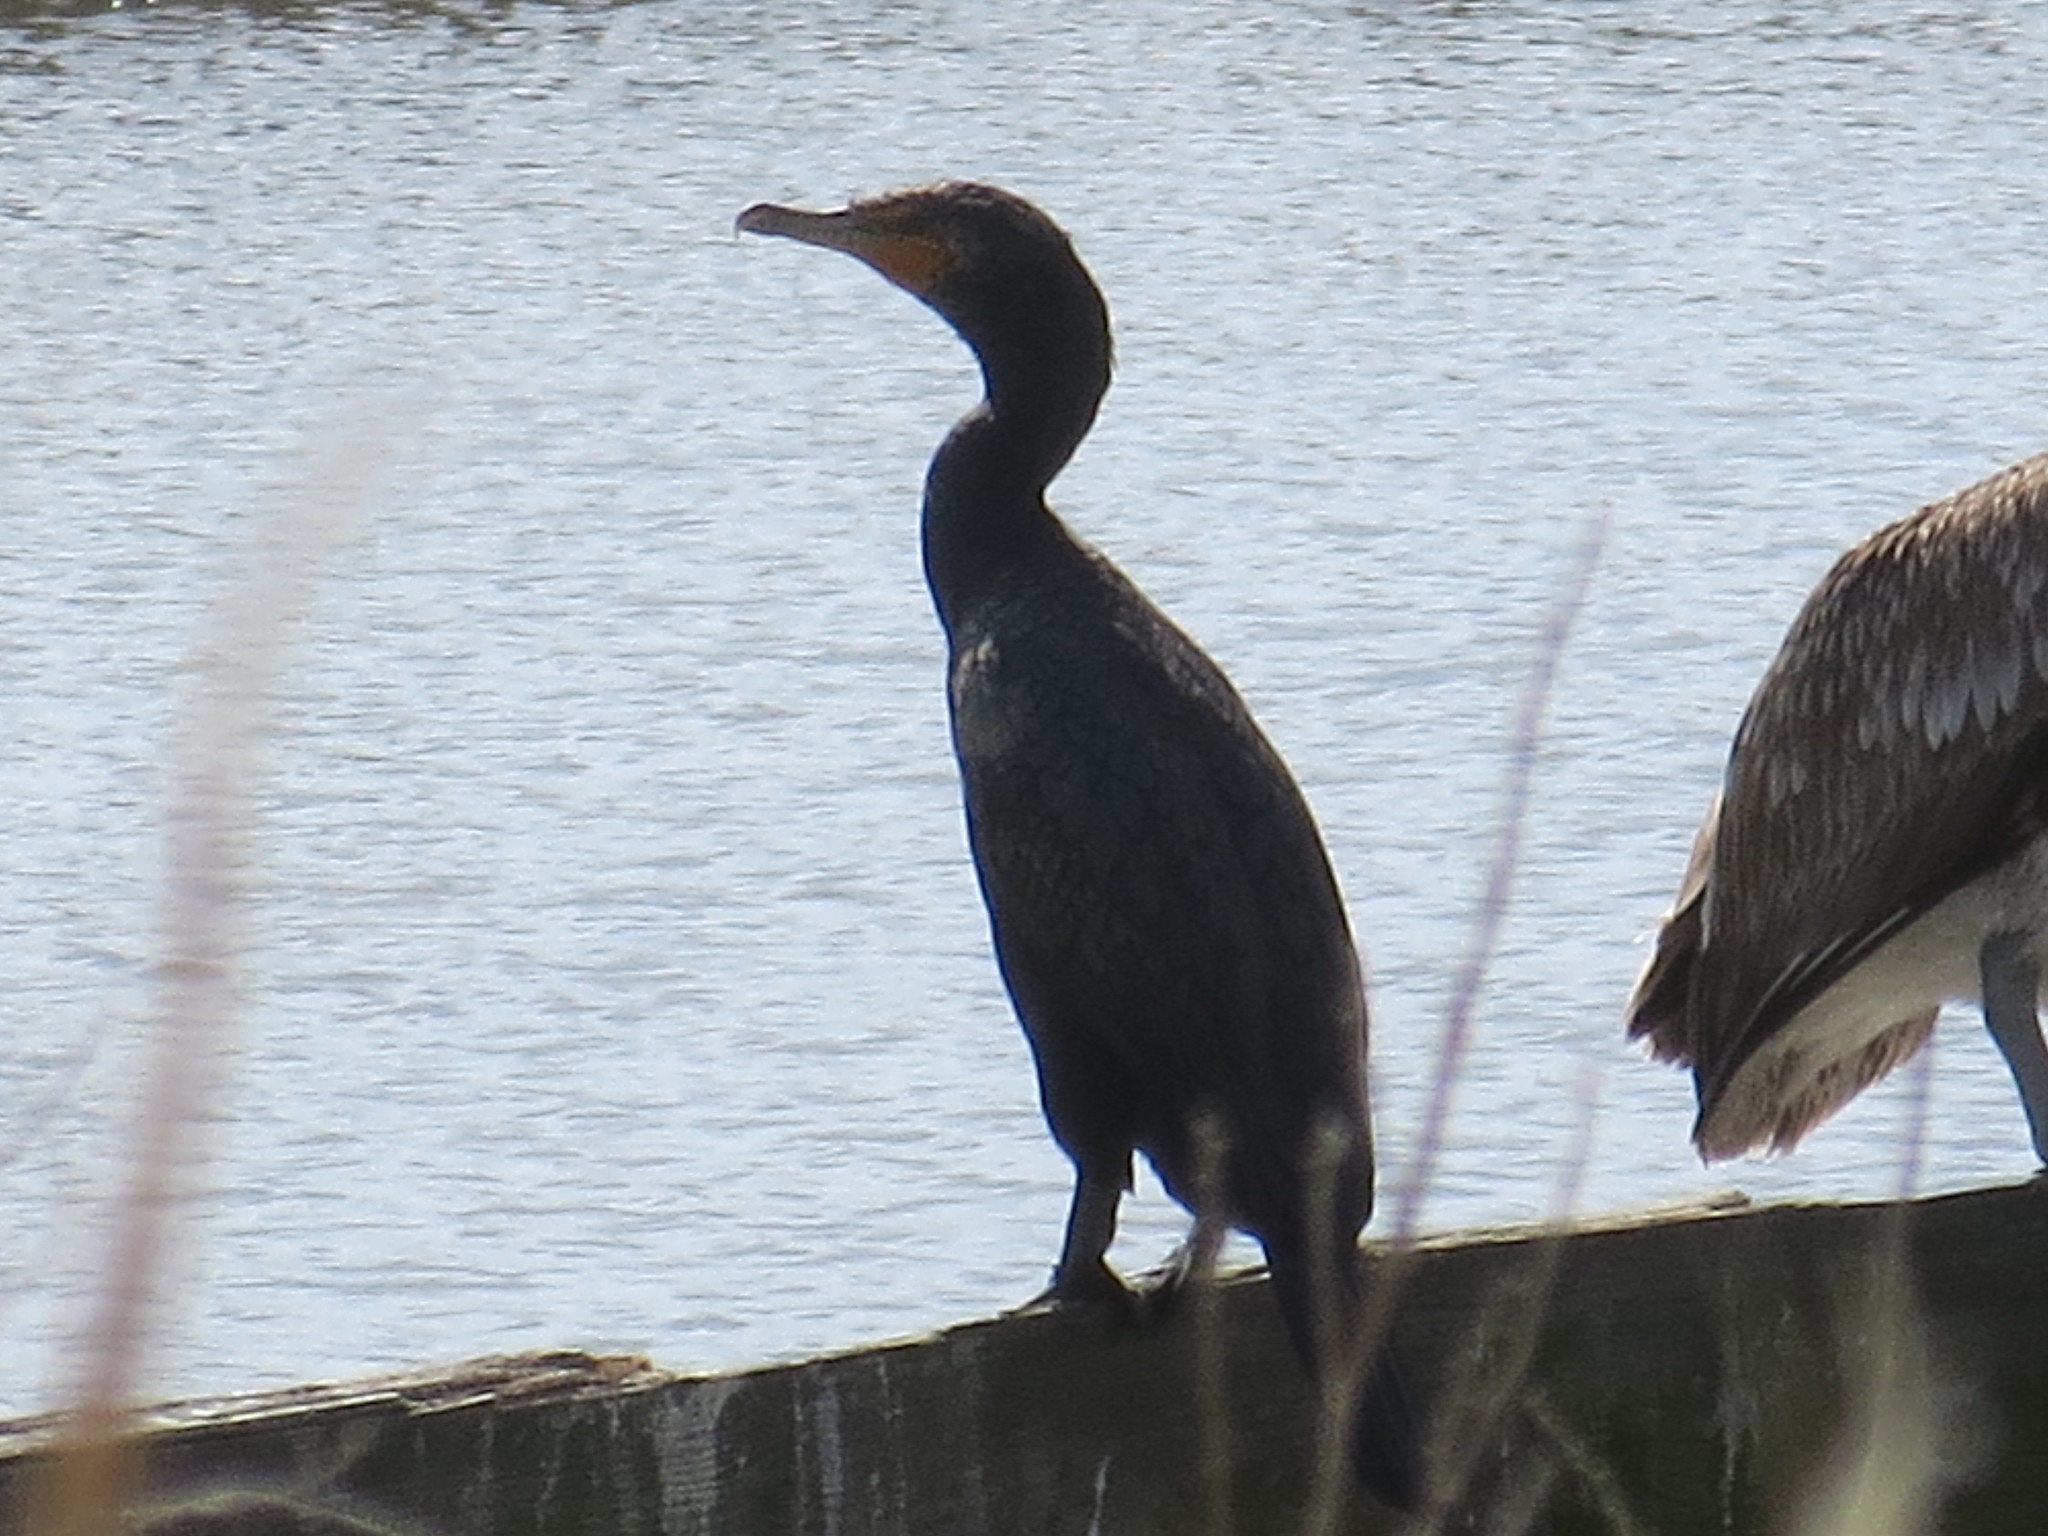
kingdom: Animalia
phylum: Chordata
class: Aves
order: Suliformes
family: Phalacrocoracidae
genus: Phalacrocorax
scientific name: Phalacrocorax auritus
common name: Double-crested cormorant
